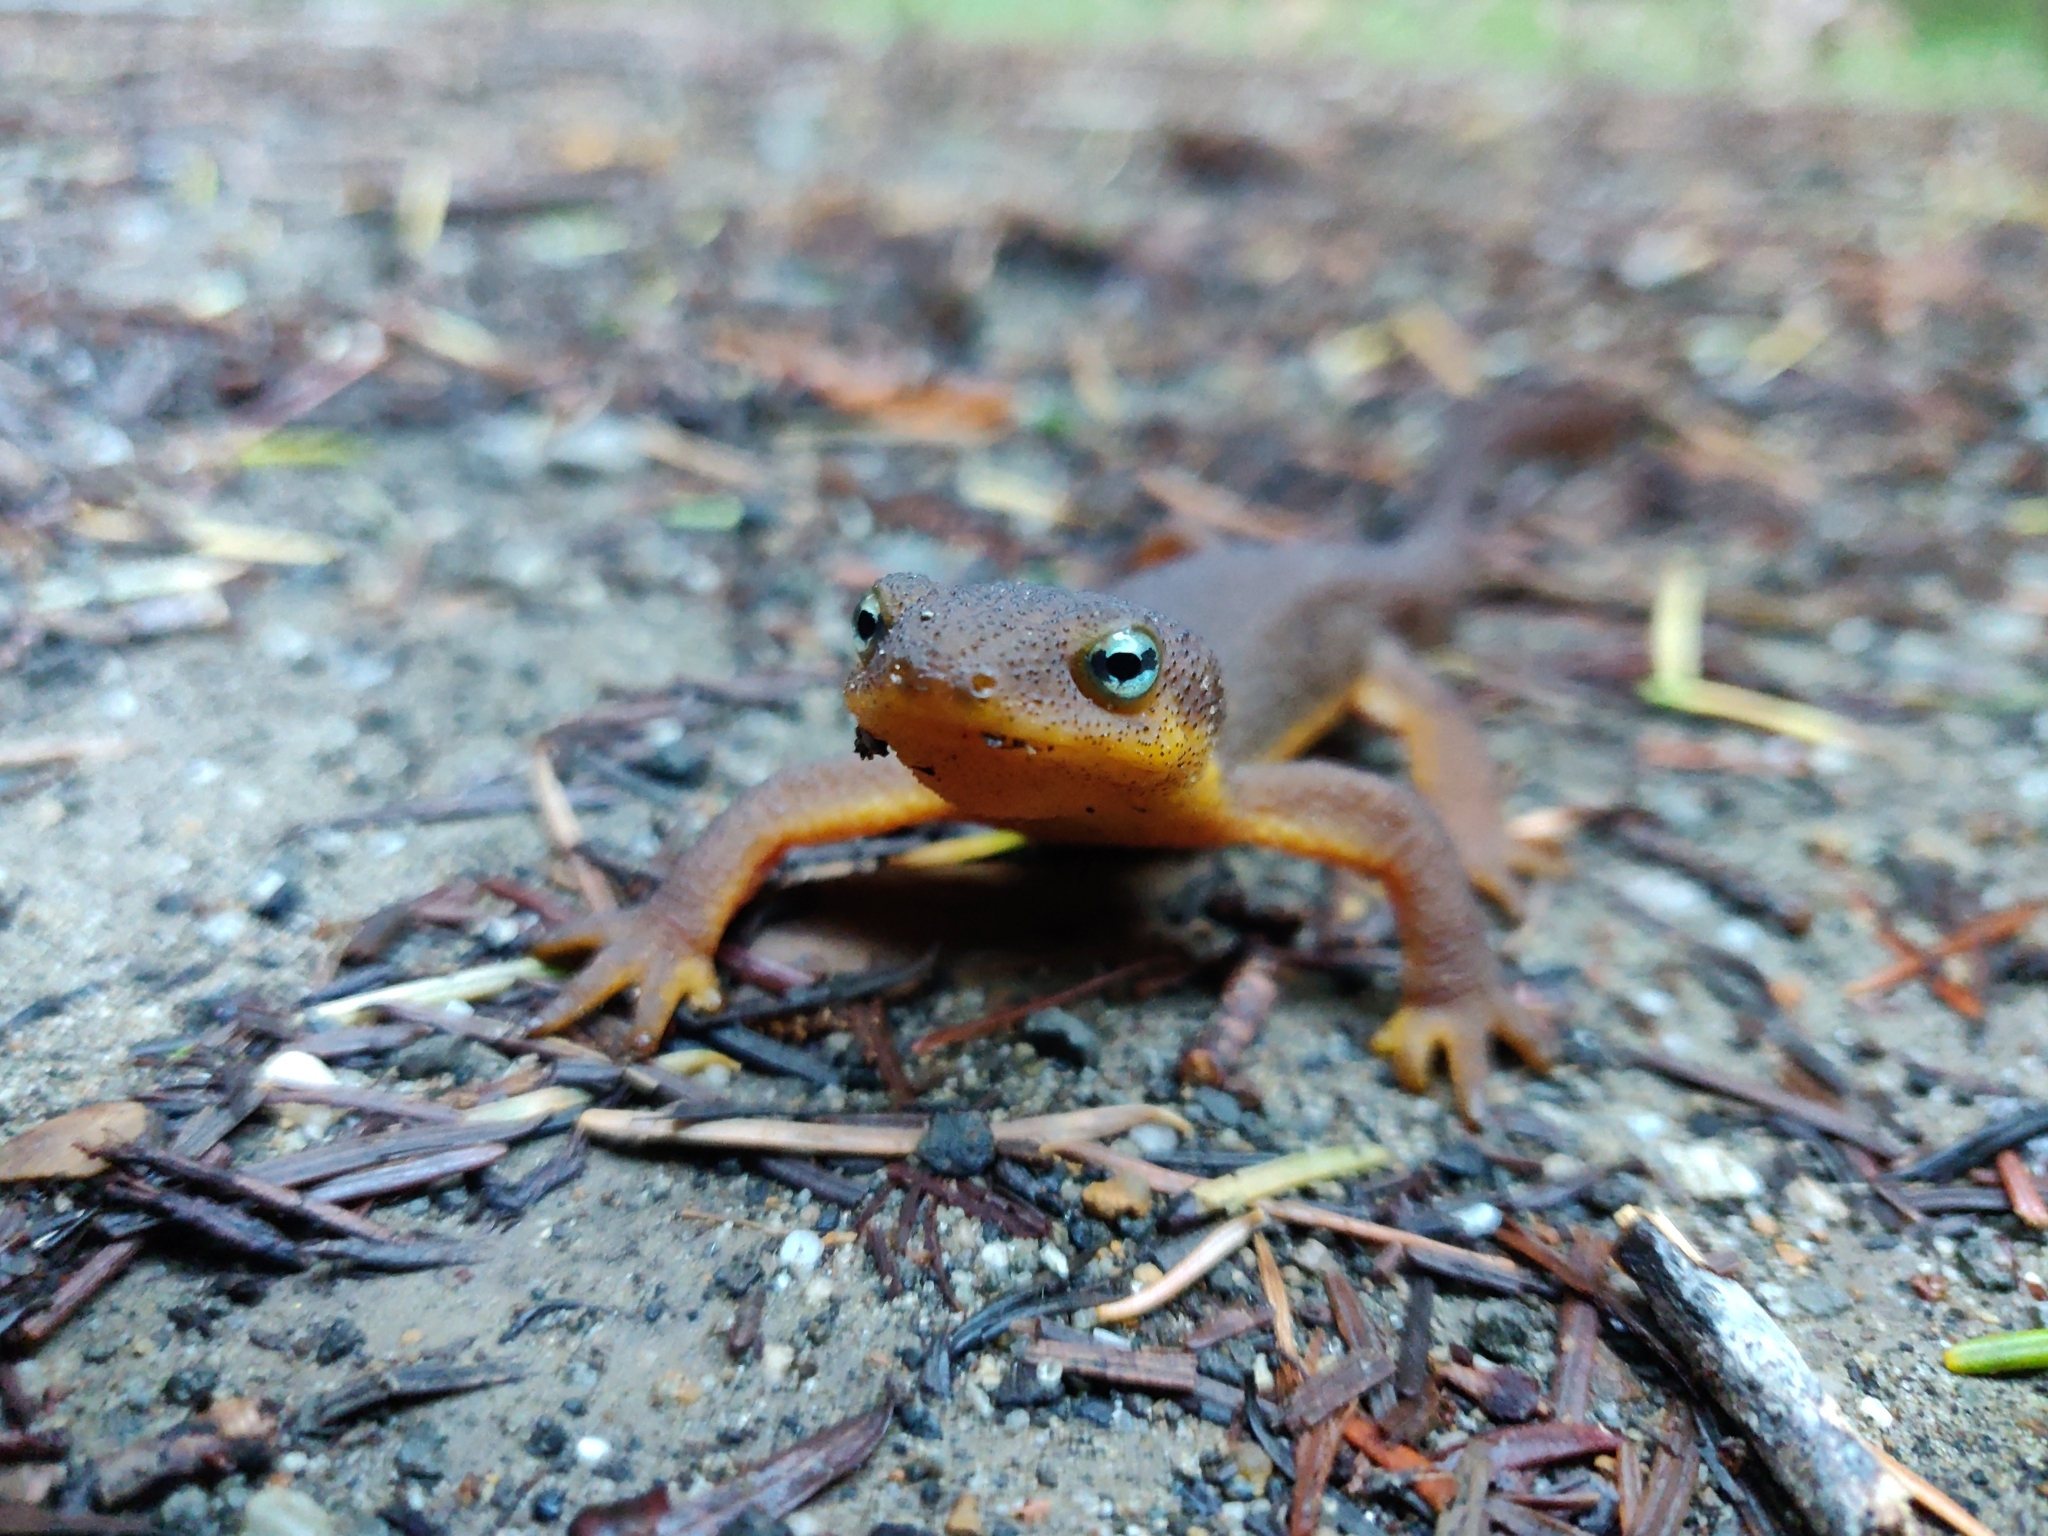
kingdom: Animalia
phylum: Chordata
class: Amphibia
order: Caudata
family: Salamandridae
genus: Taricha
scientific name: Taricha torosa
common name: California newt
